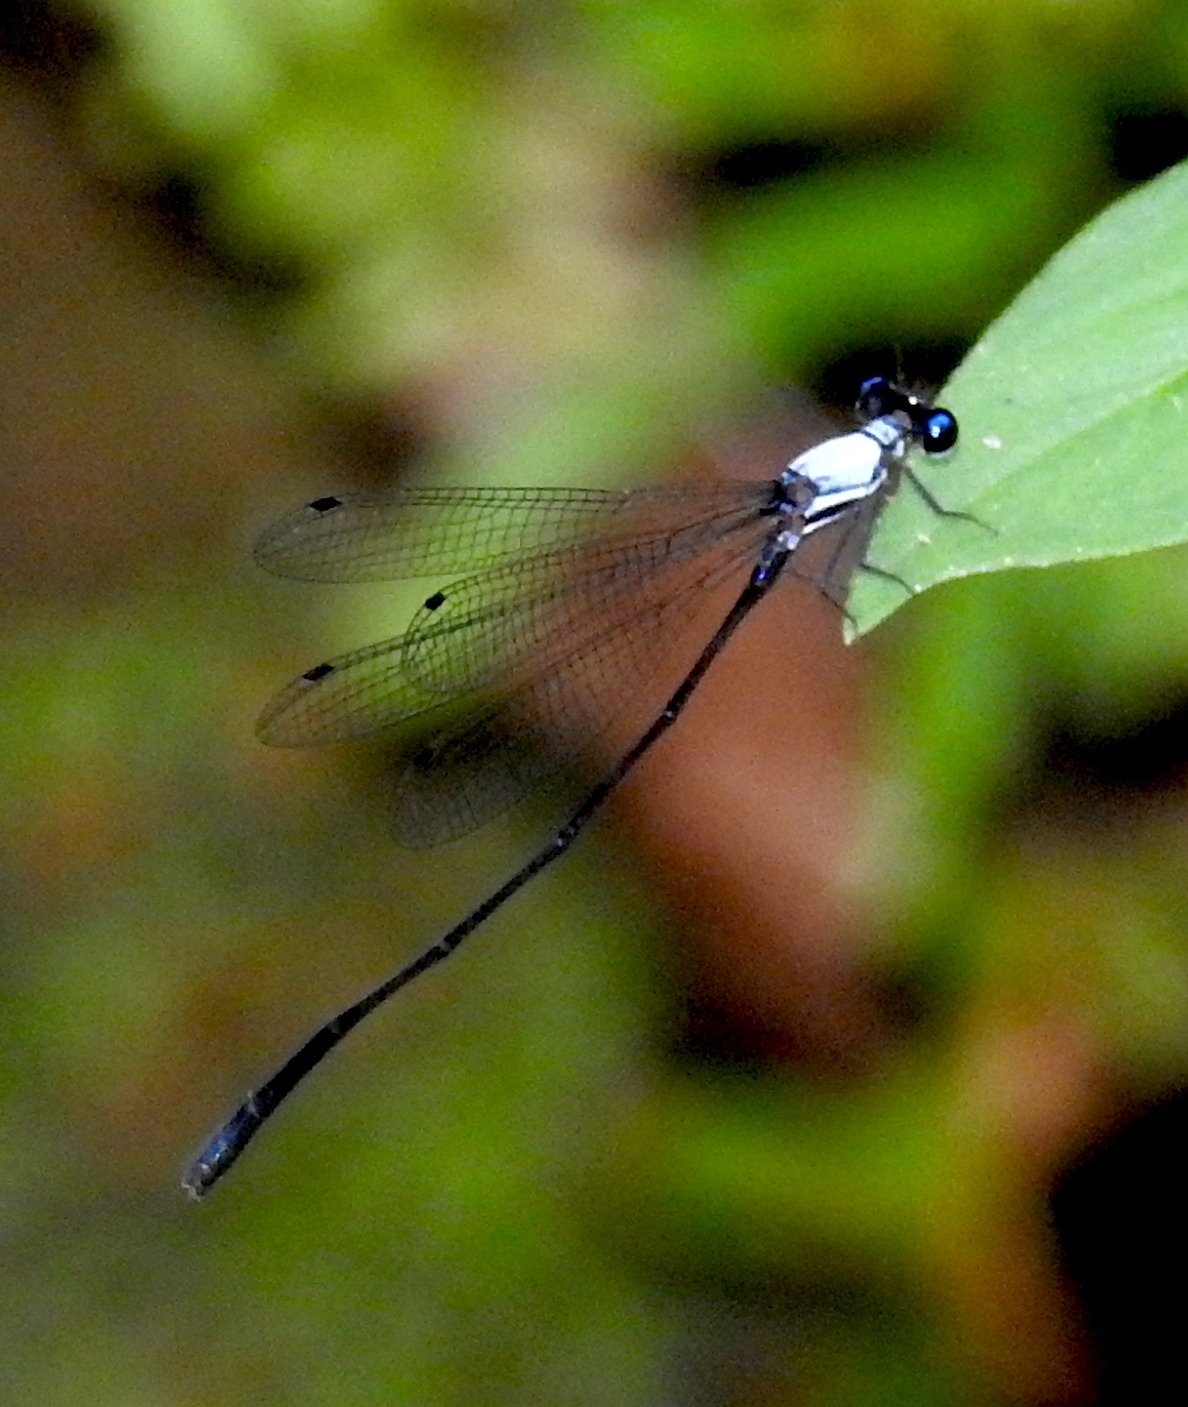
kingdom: Animalia
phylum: Arthropoda
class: Insecta
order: Odonata
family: Platycnemididae
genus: Elattoneura
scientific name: Elattoneura caesia
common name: Jungle threadtail
